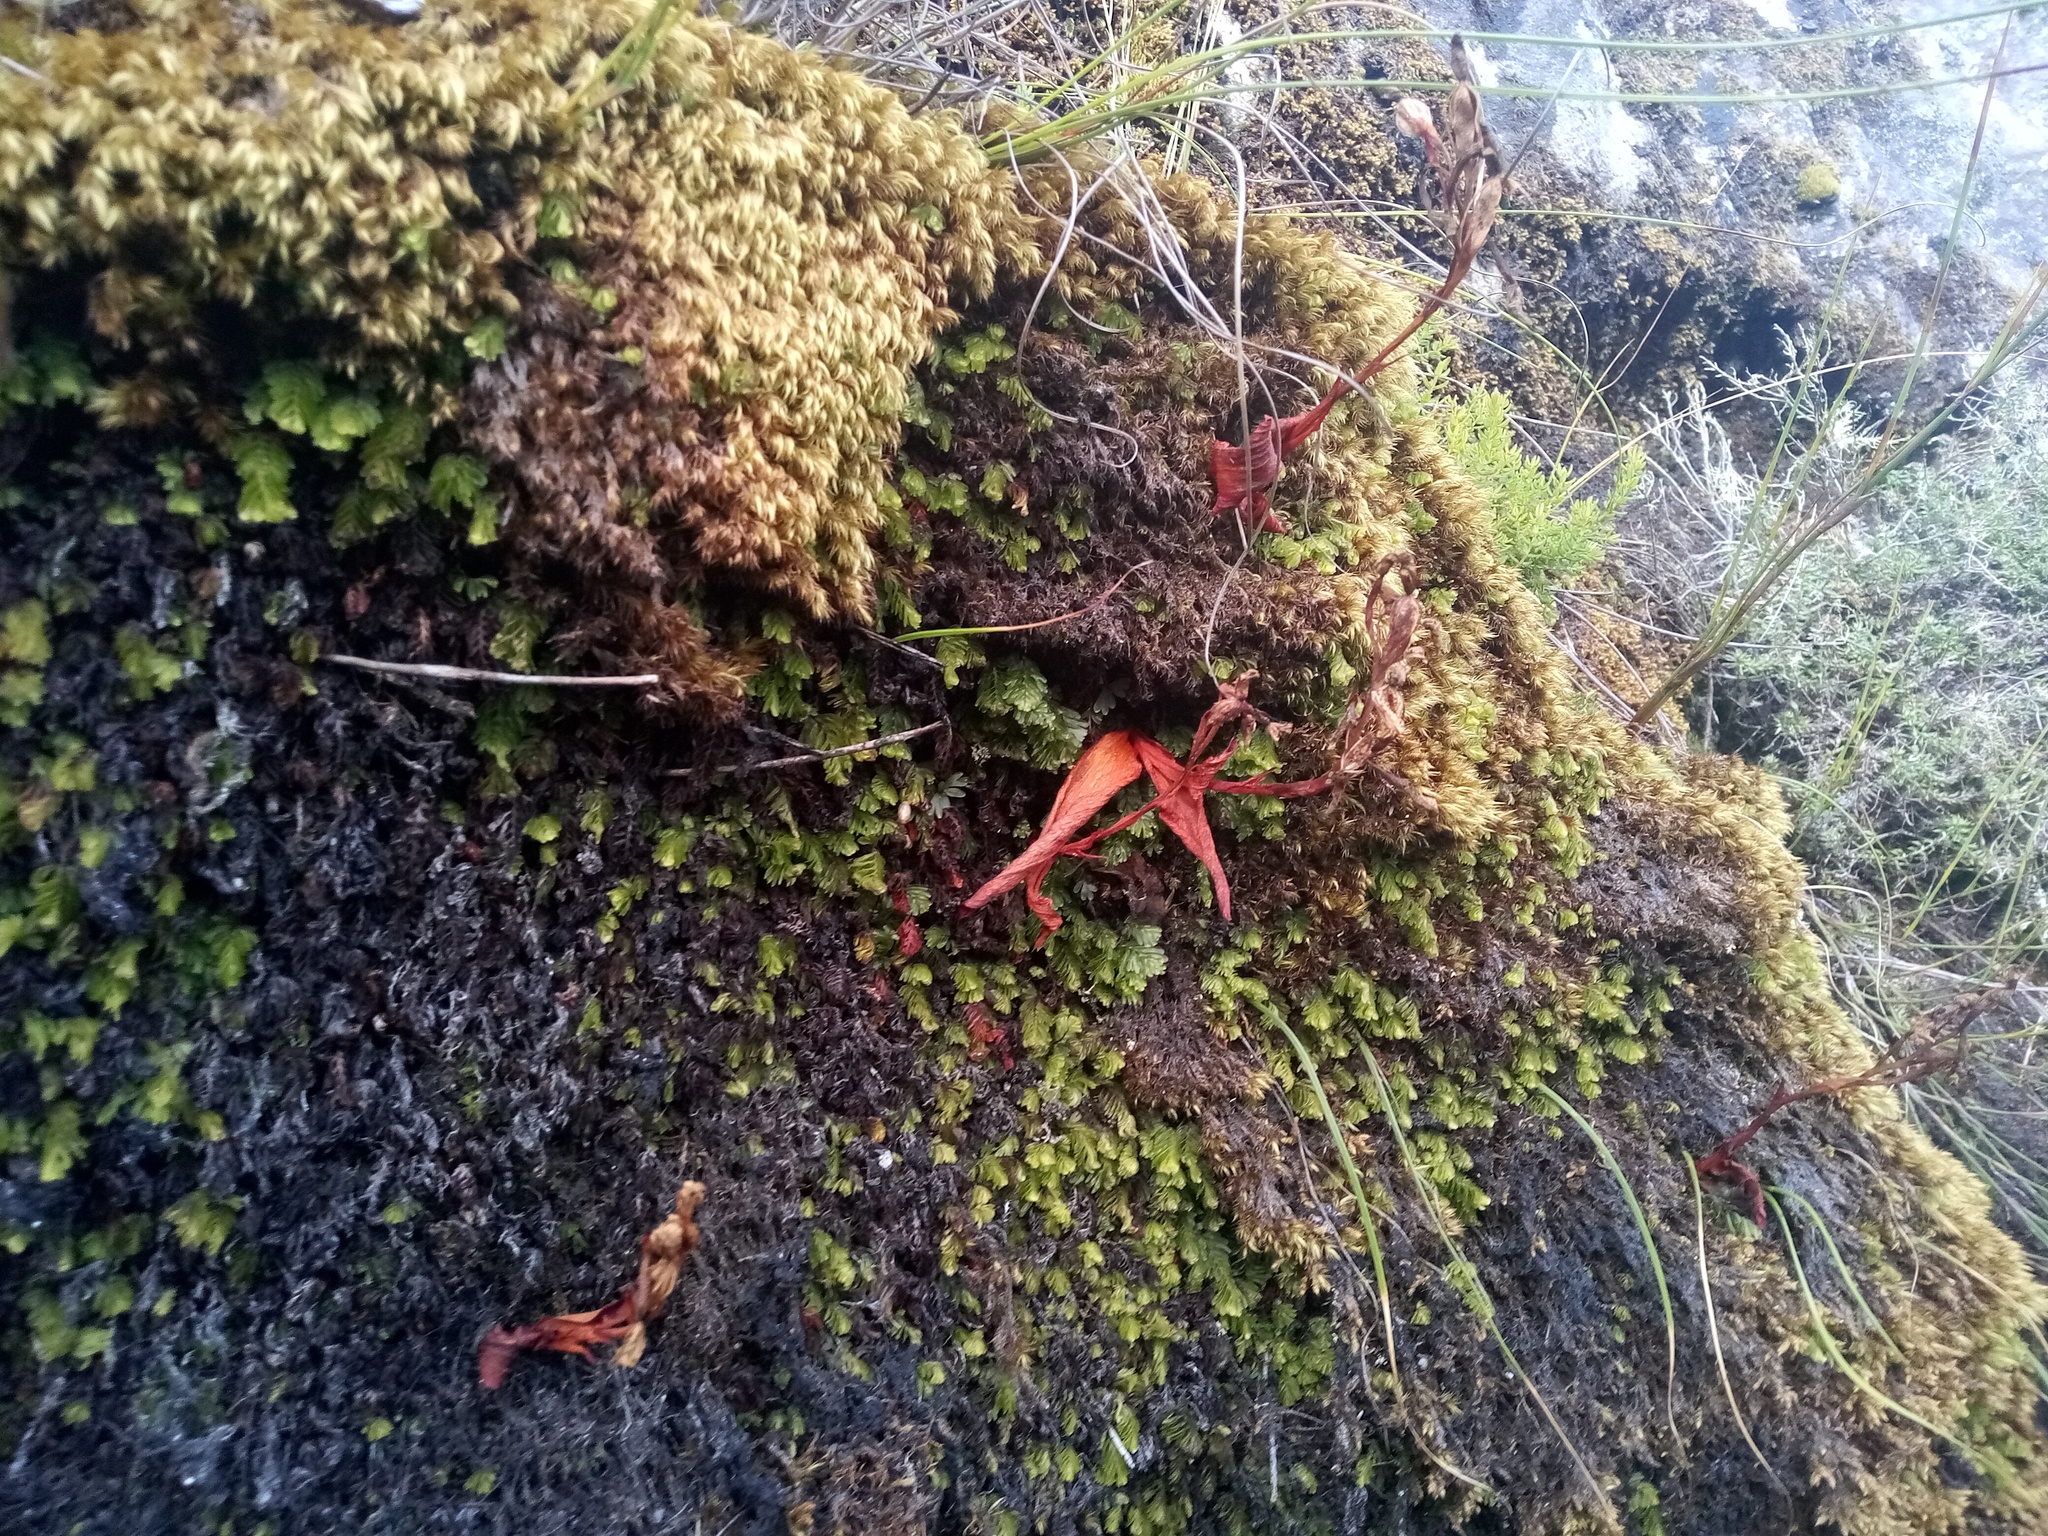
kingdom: Plantae
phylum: Tracheophyta
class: Liliopsida
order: Asparagales
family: Orchidaceae
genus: Disa
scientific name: Disa rosea
